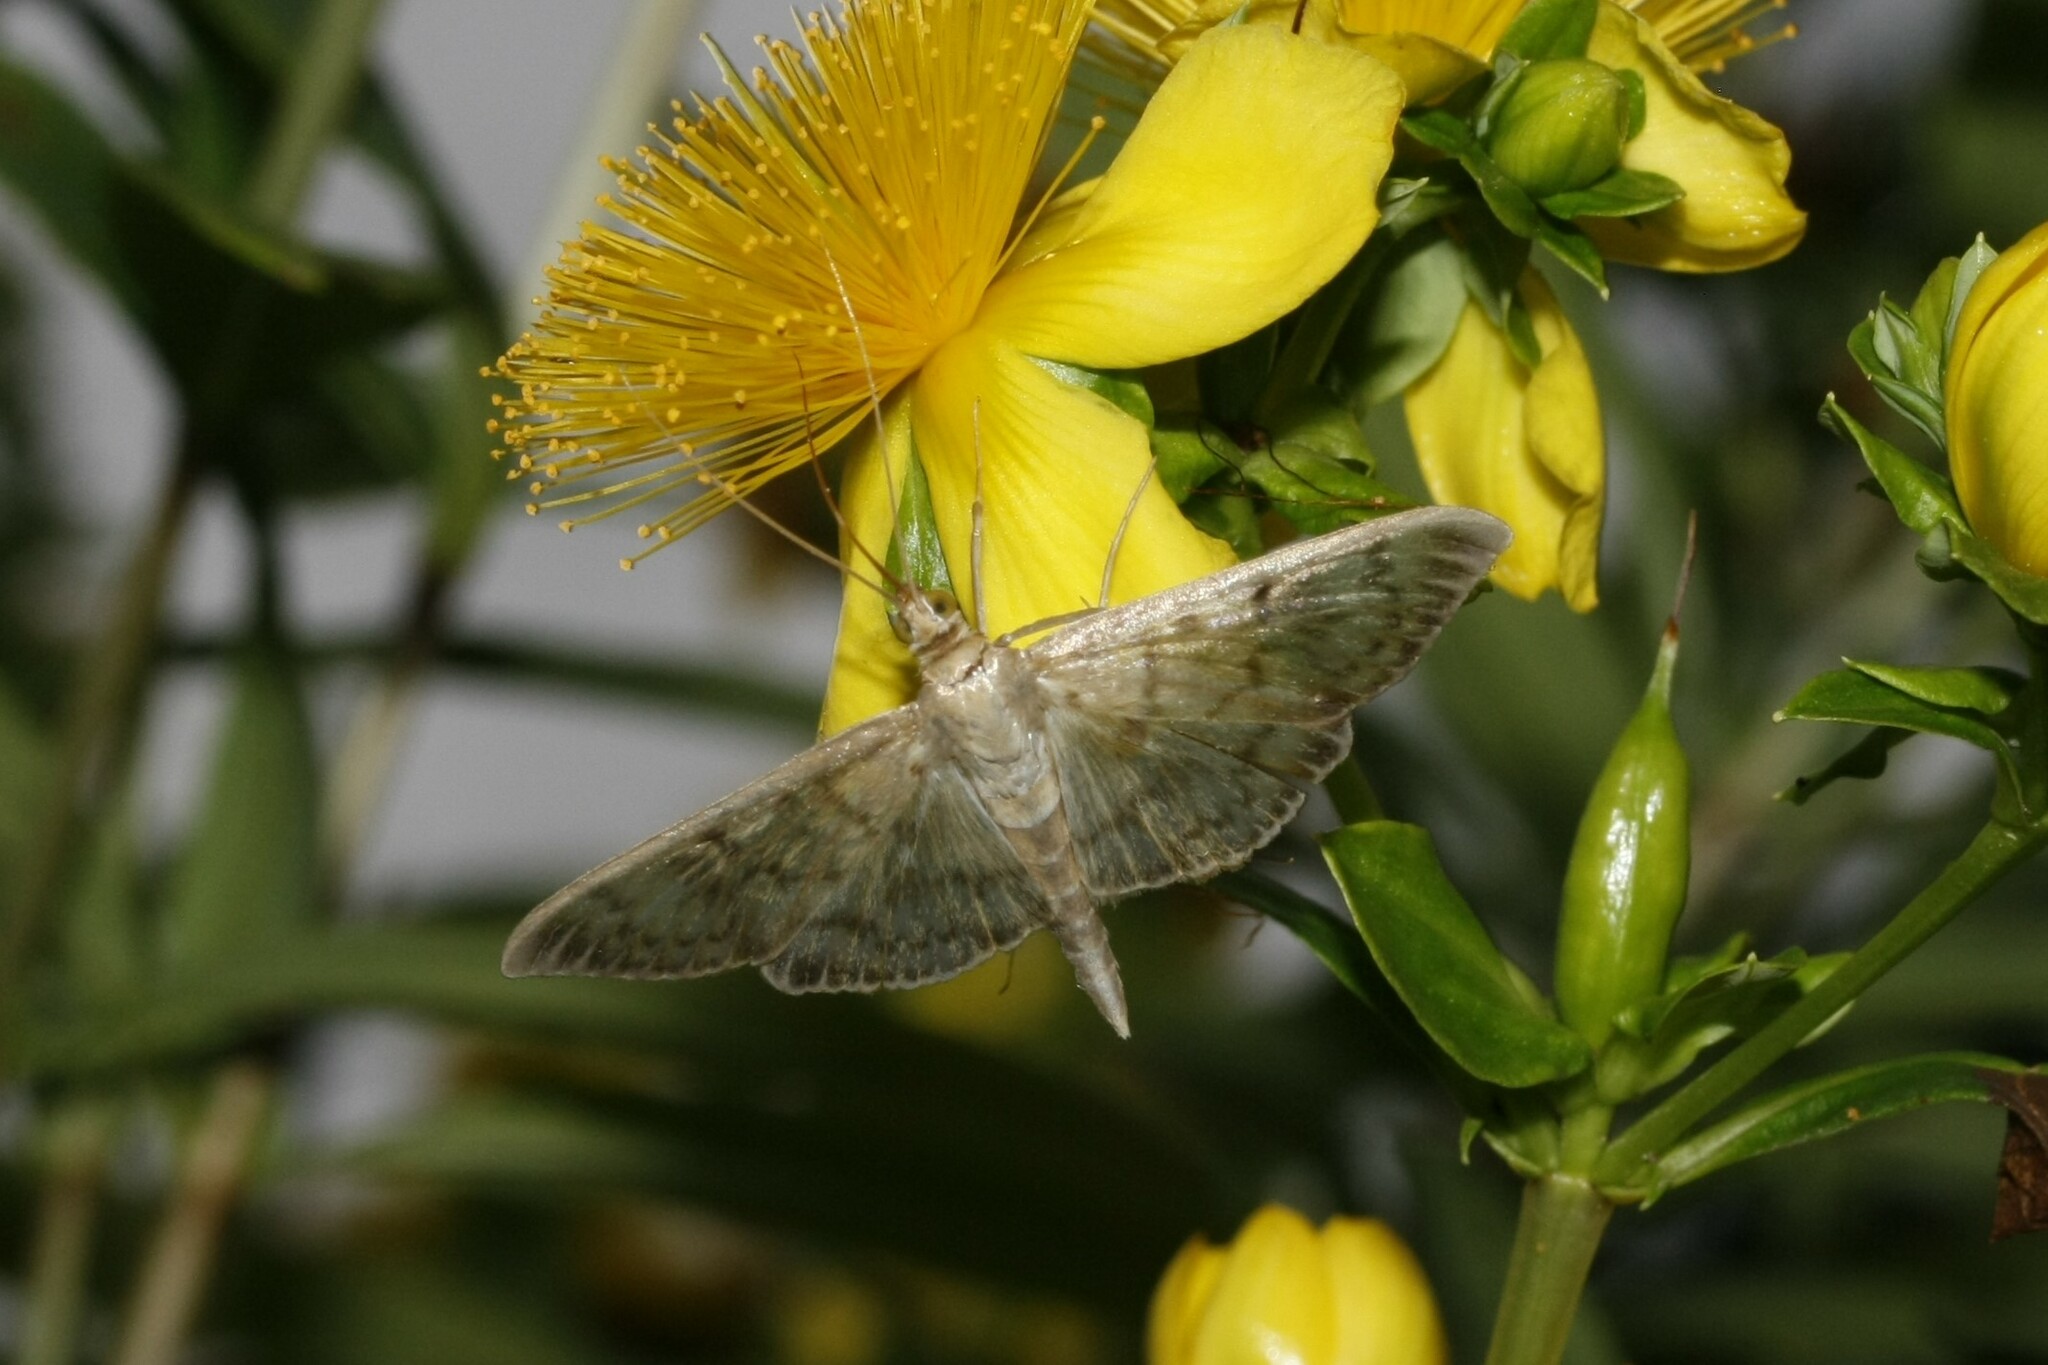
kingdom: Animalia
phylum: Arthropoda
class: Insecta
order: Lepidoptera
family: Crambidae
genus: Patania
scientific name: Patania ruralis
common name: Mother of pearl
